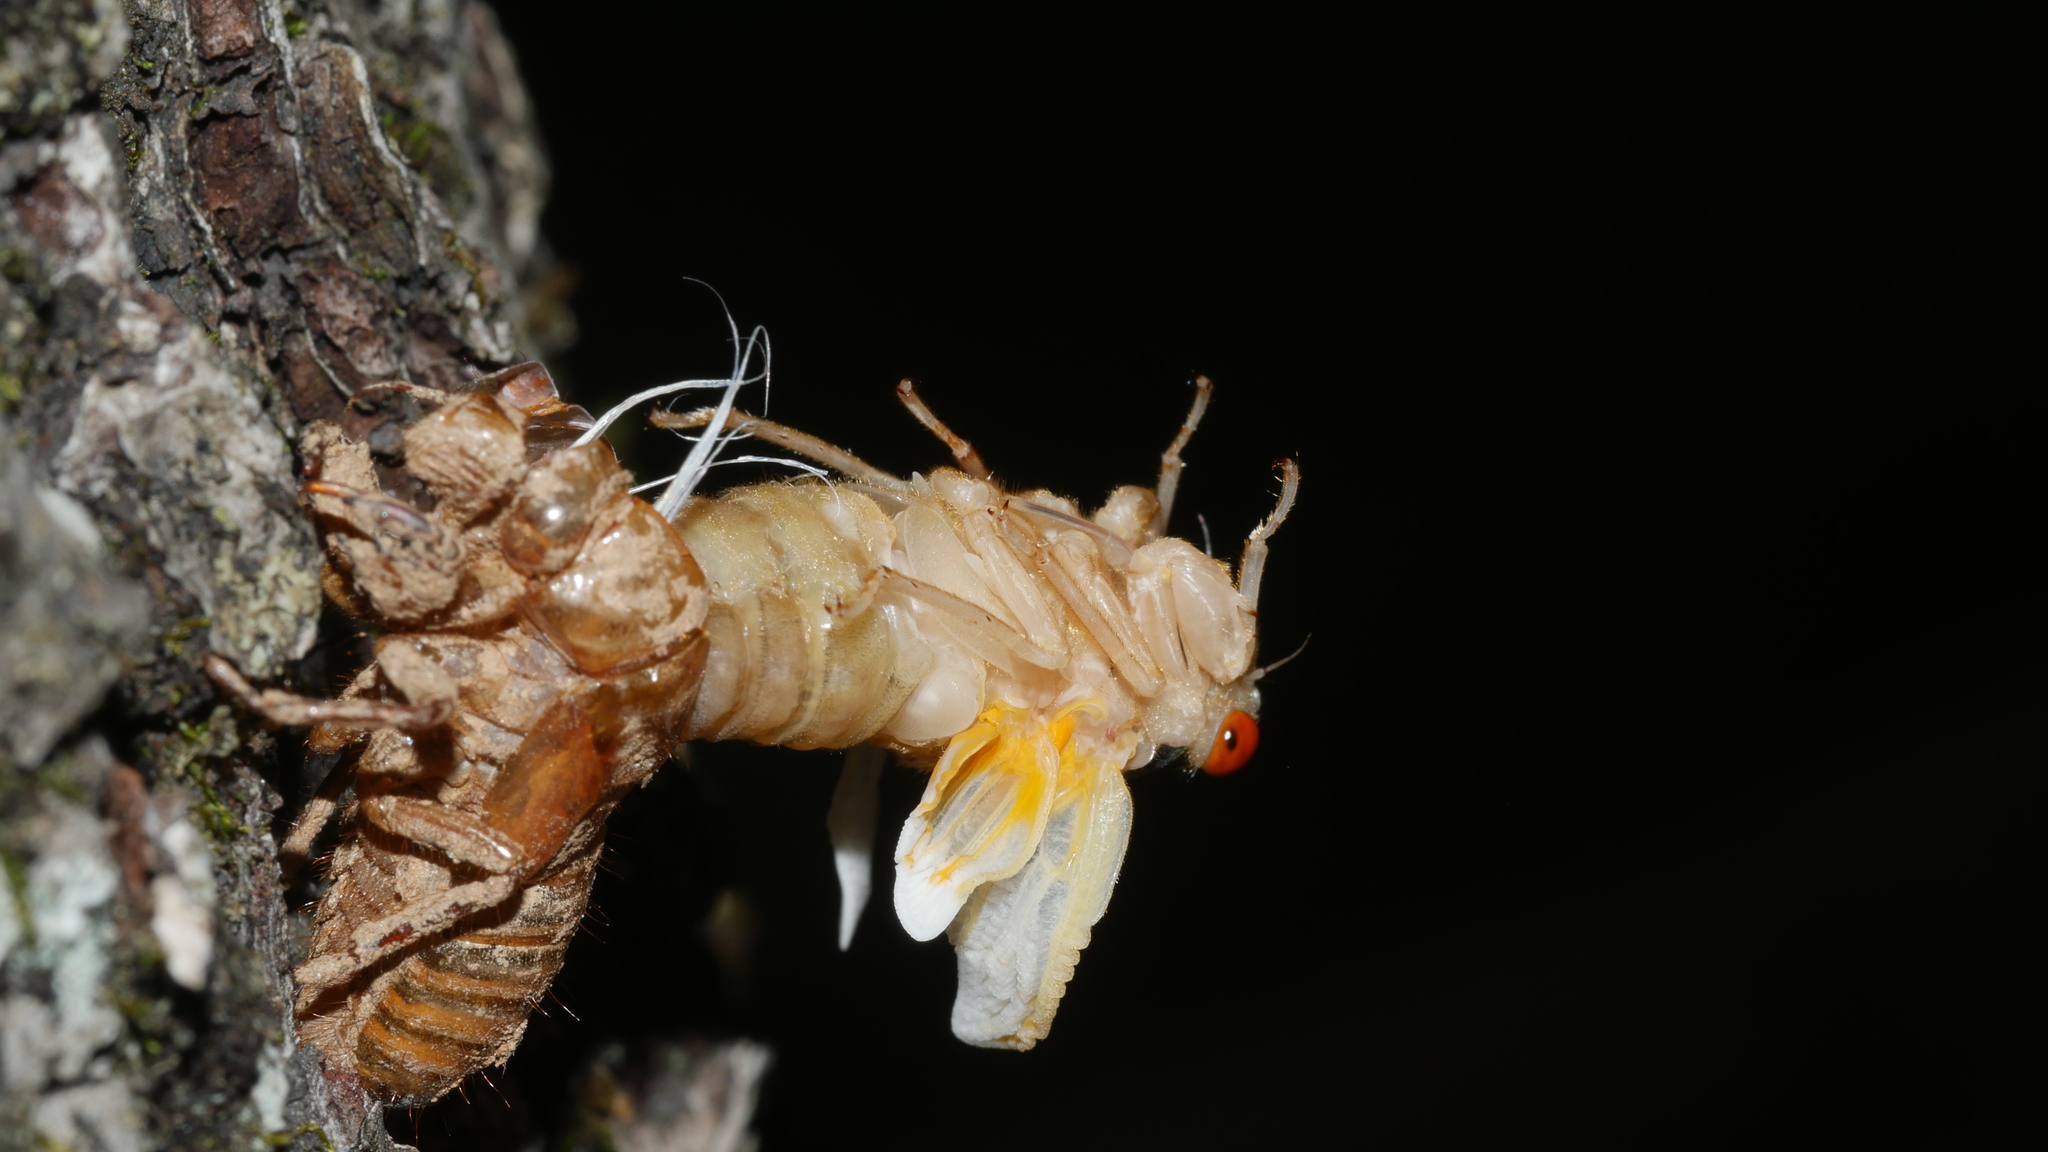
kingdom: Animalia
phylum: Arthropoda
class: Insecta
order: Hemiptera
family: Cicadidae
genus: Magicicada
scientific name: Magicicada
